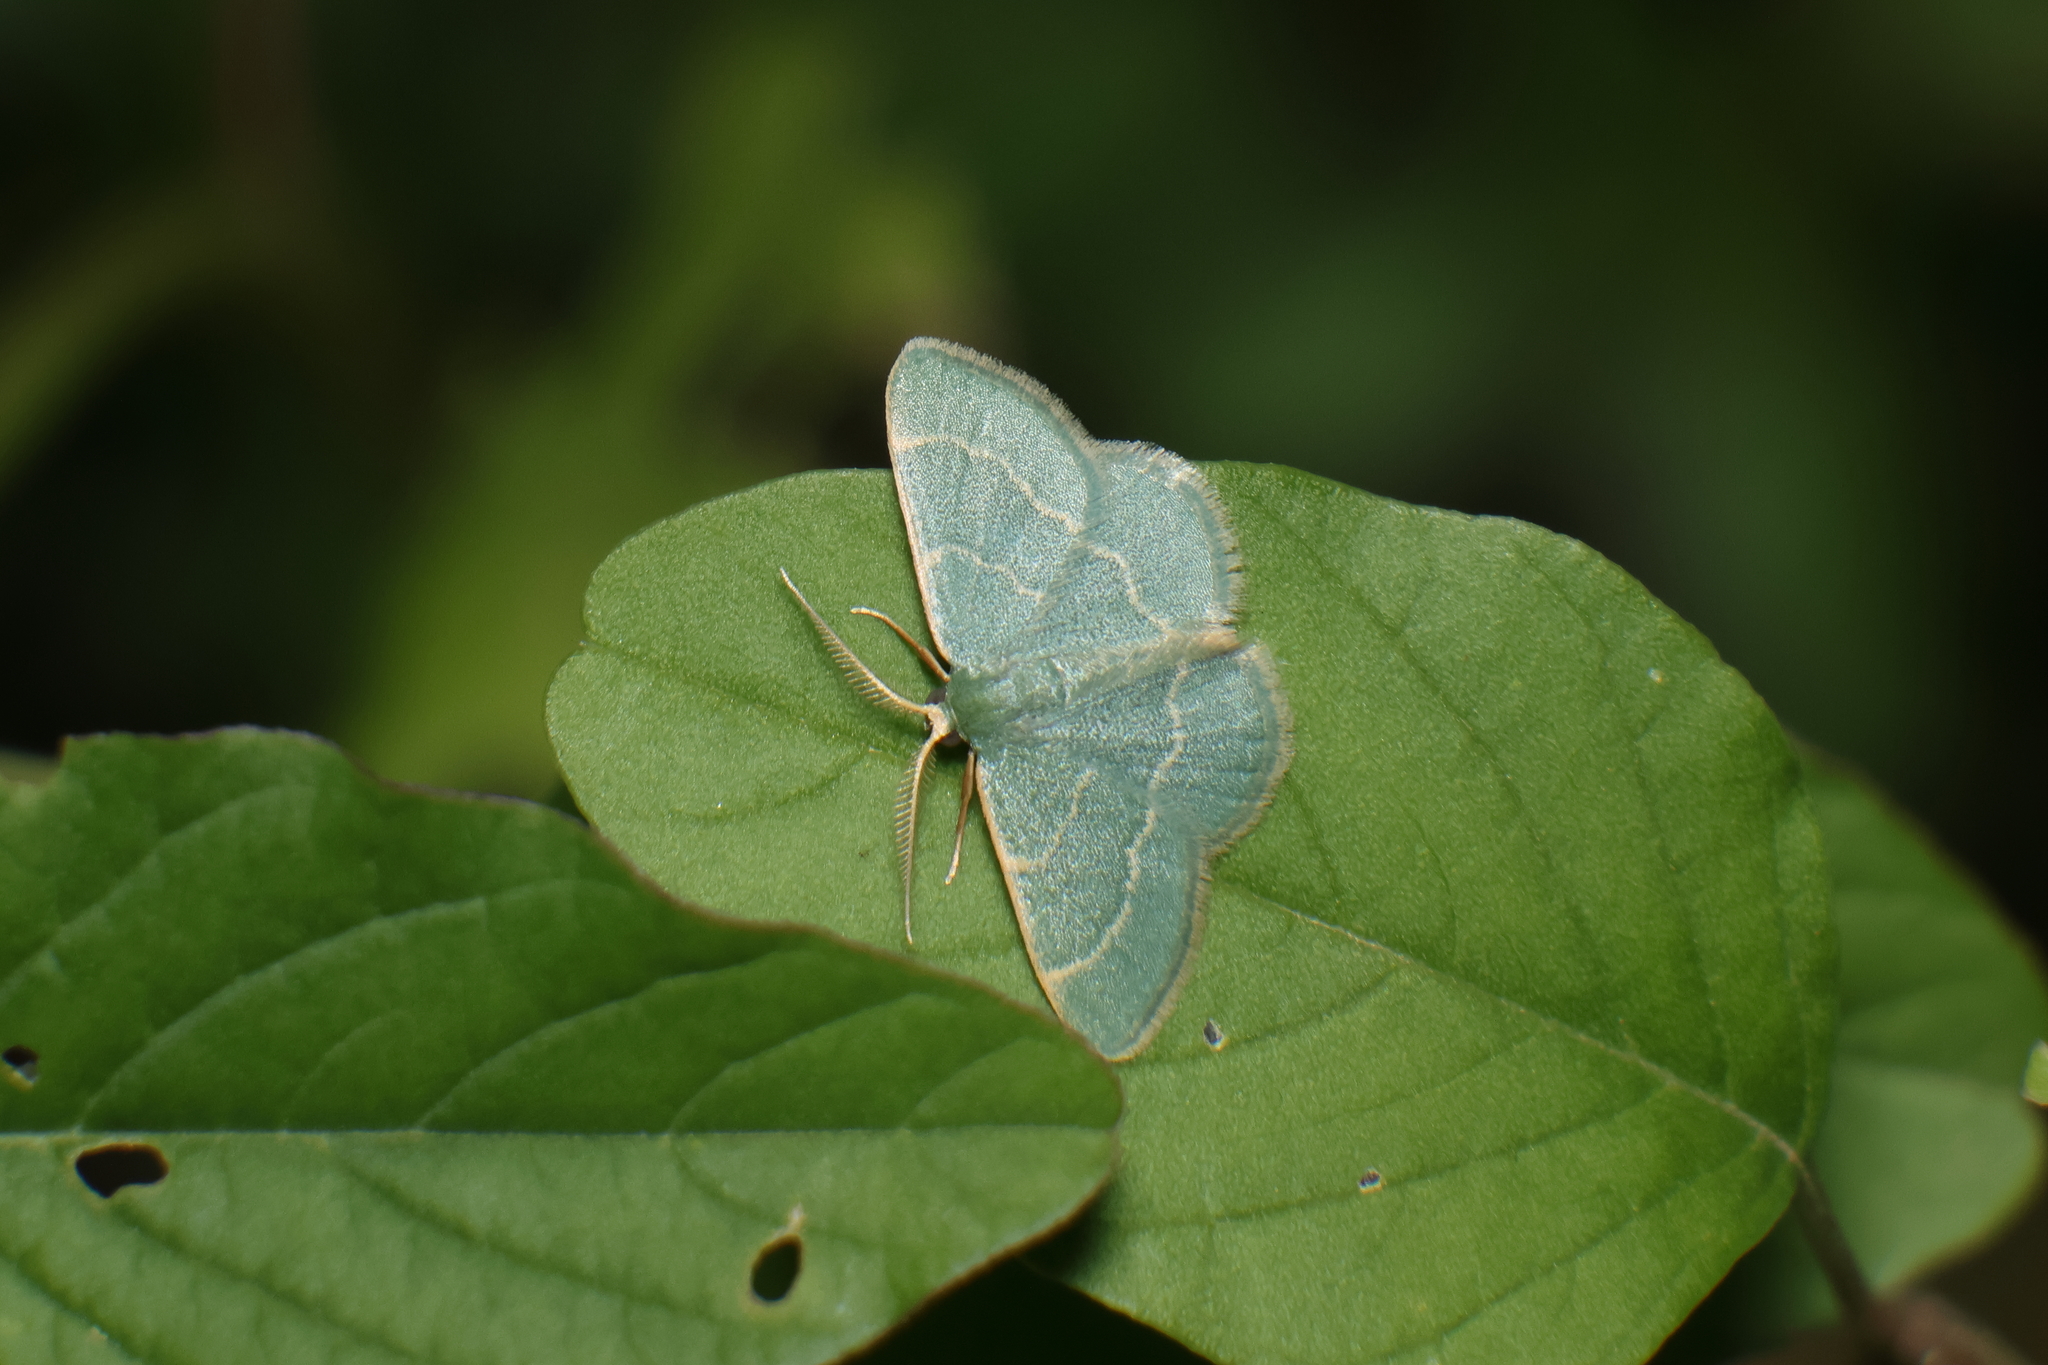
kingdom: Animalia
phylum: Arthropoda
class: Insecta
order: Lepidoptera
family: Geometridae
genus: Chlorochlamys
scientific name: Chlorochlamys appellaria
